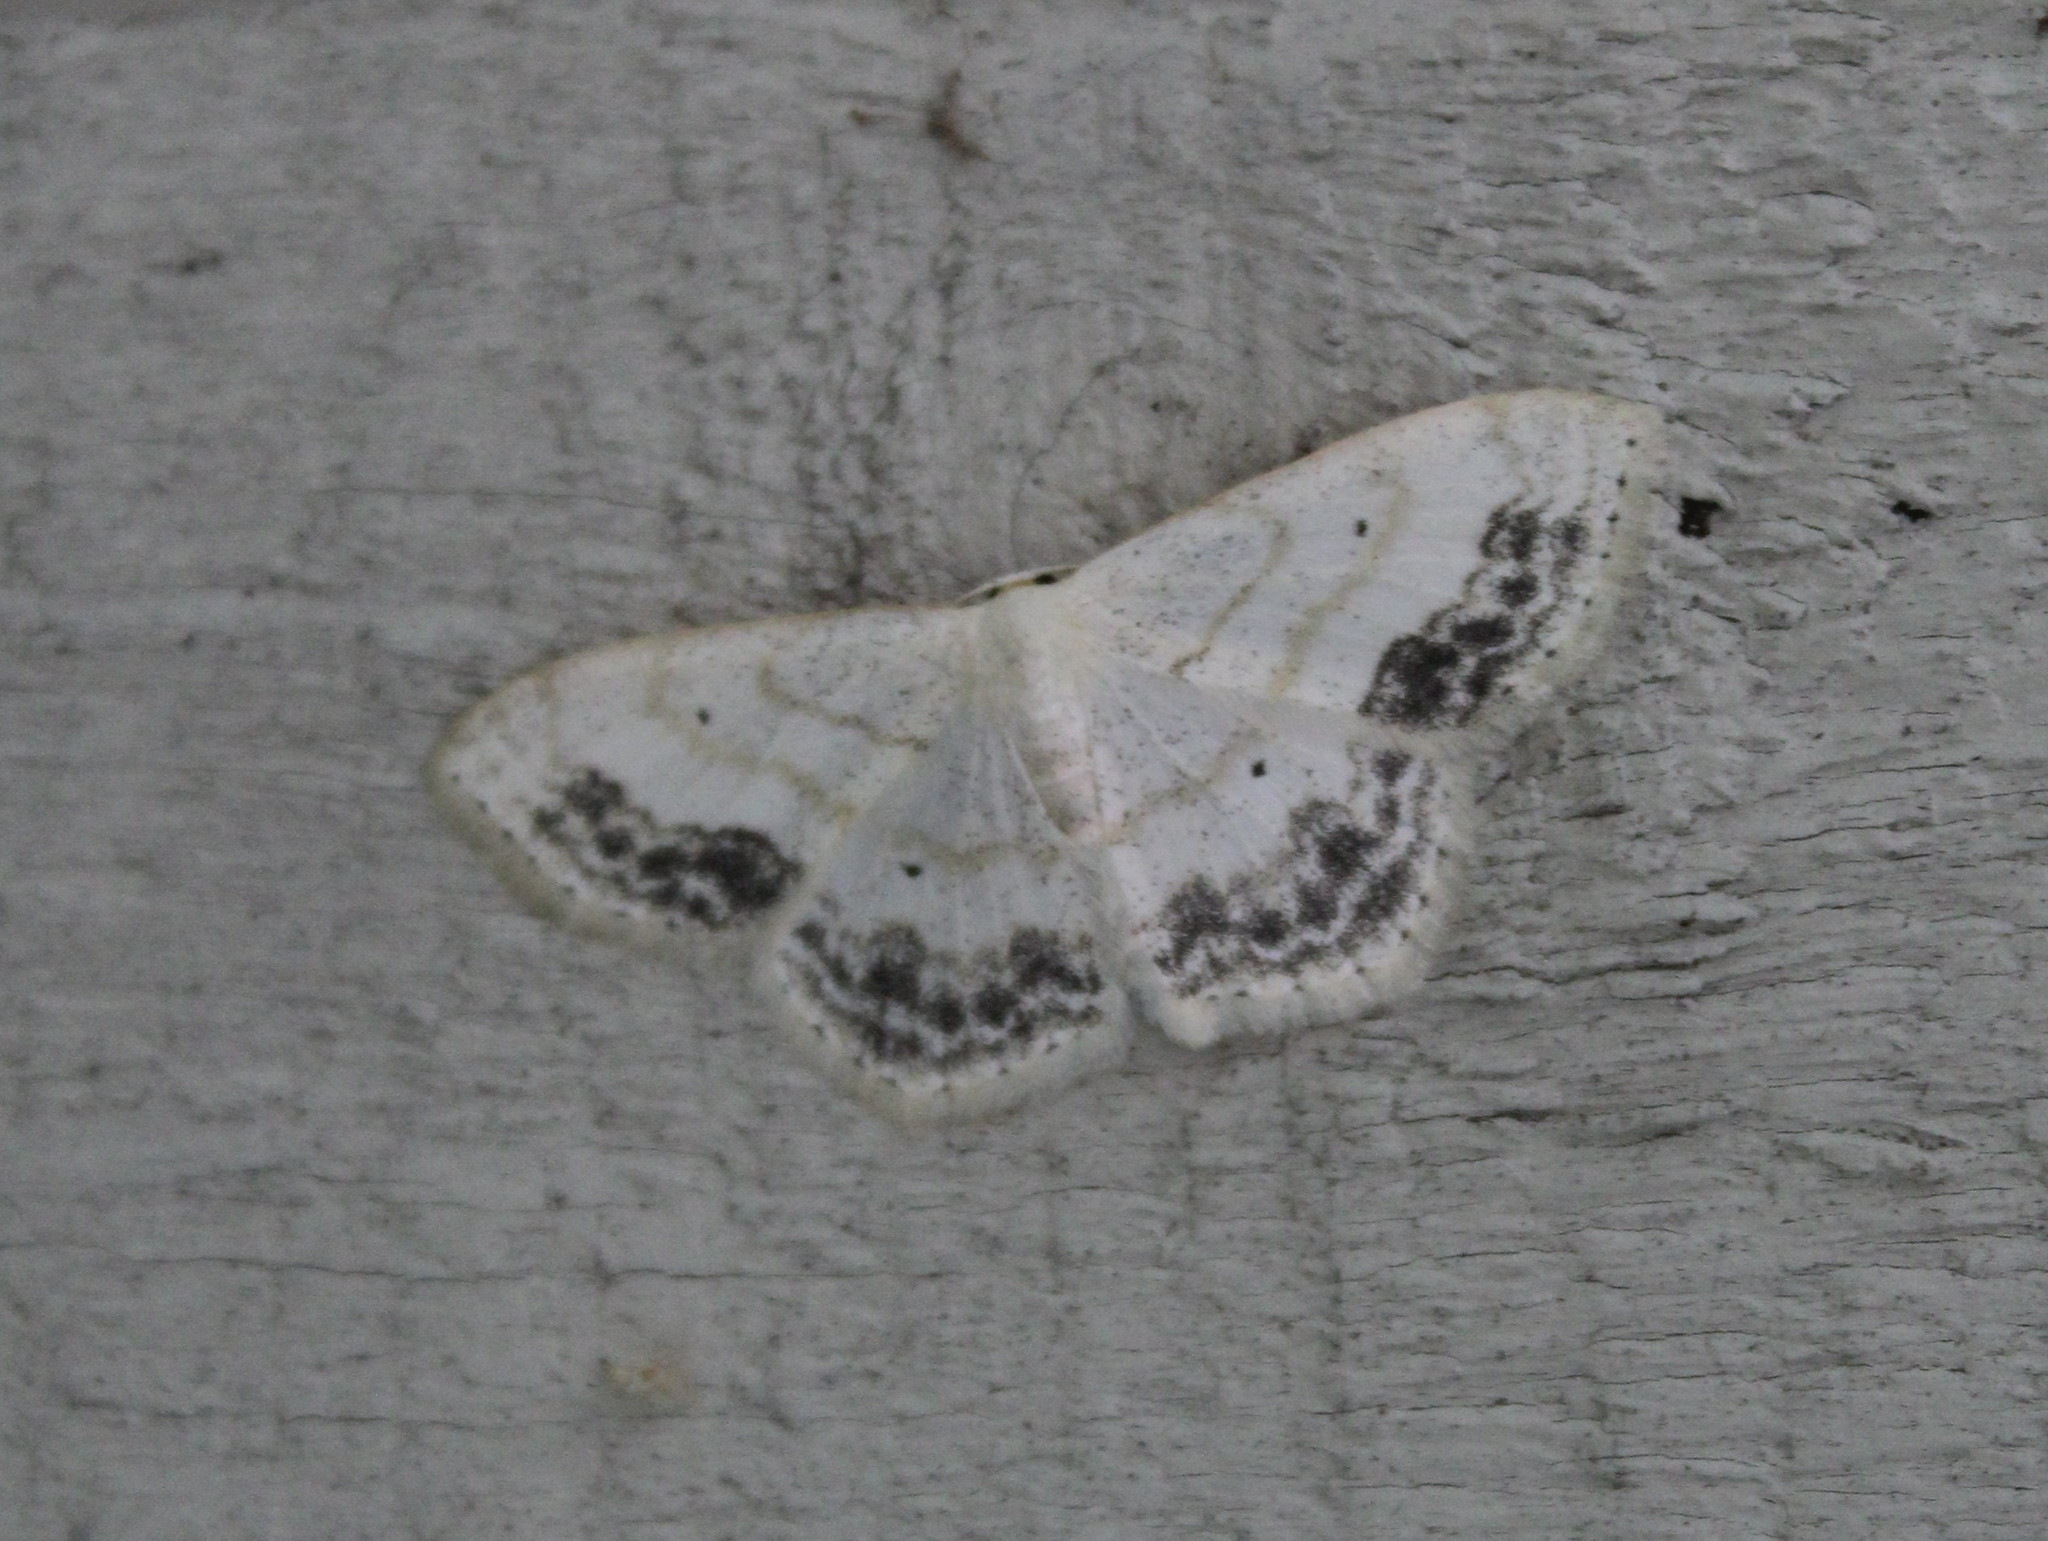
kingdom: Animalia
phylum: Arthropoda
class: Insecta
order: Lepidoptera
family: Geometridae
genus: Scopula
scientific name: Scopula limboundata
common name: Large lace border
